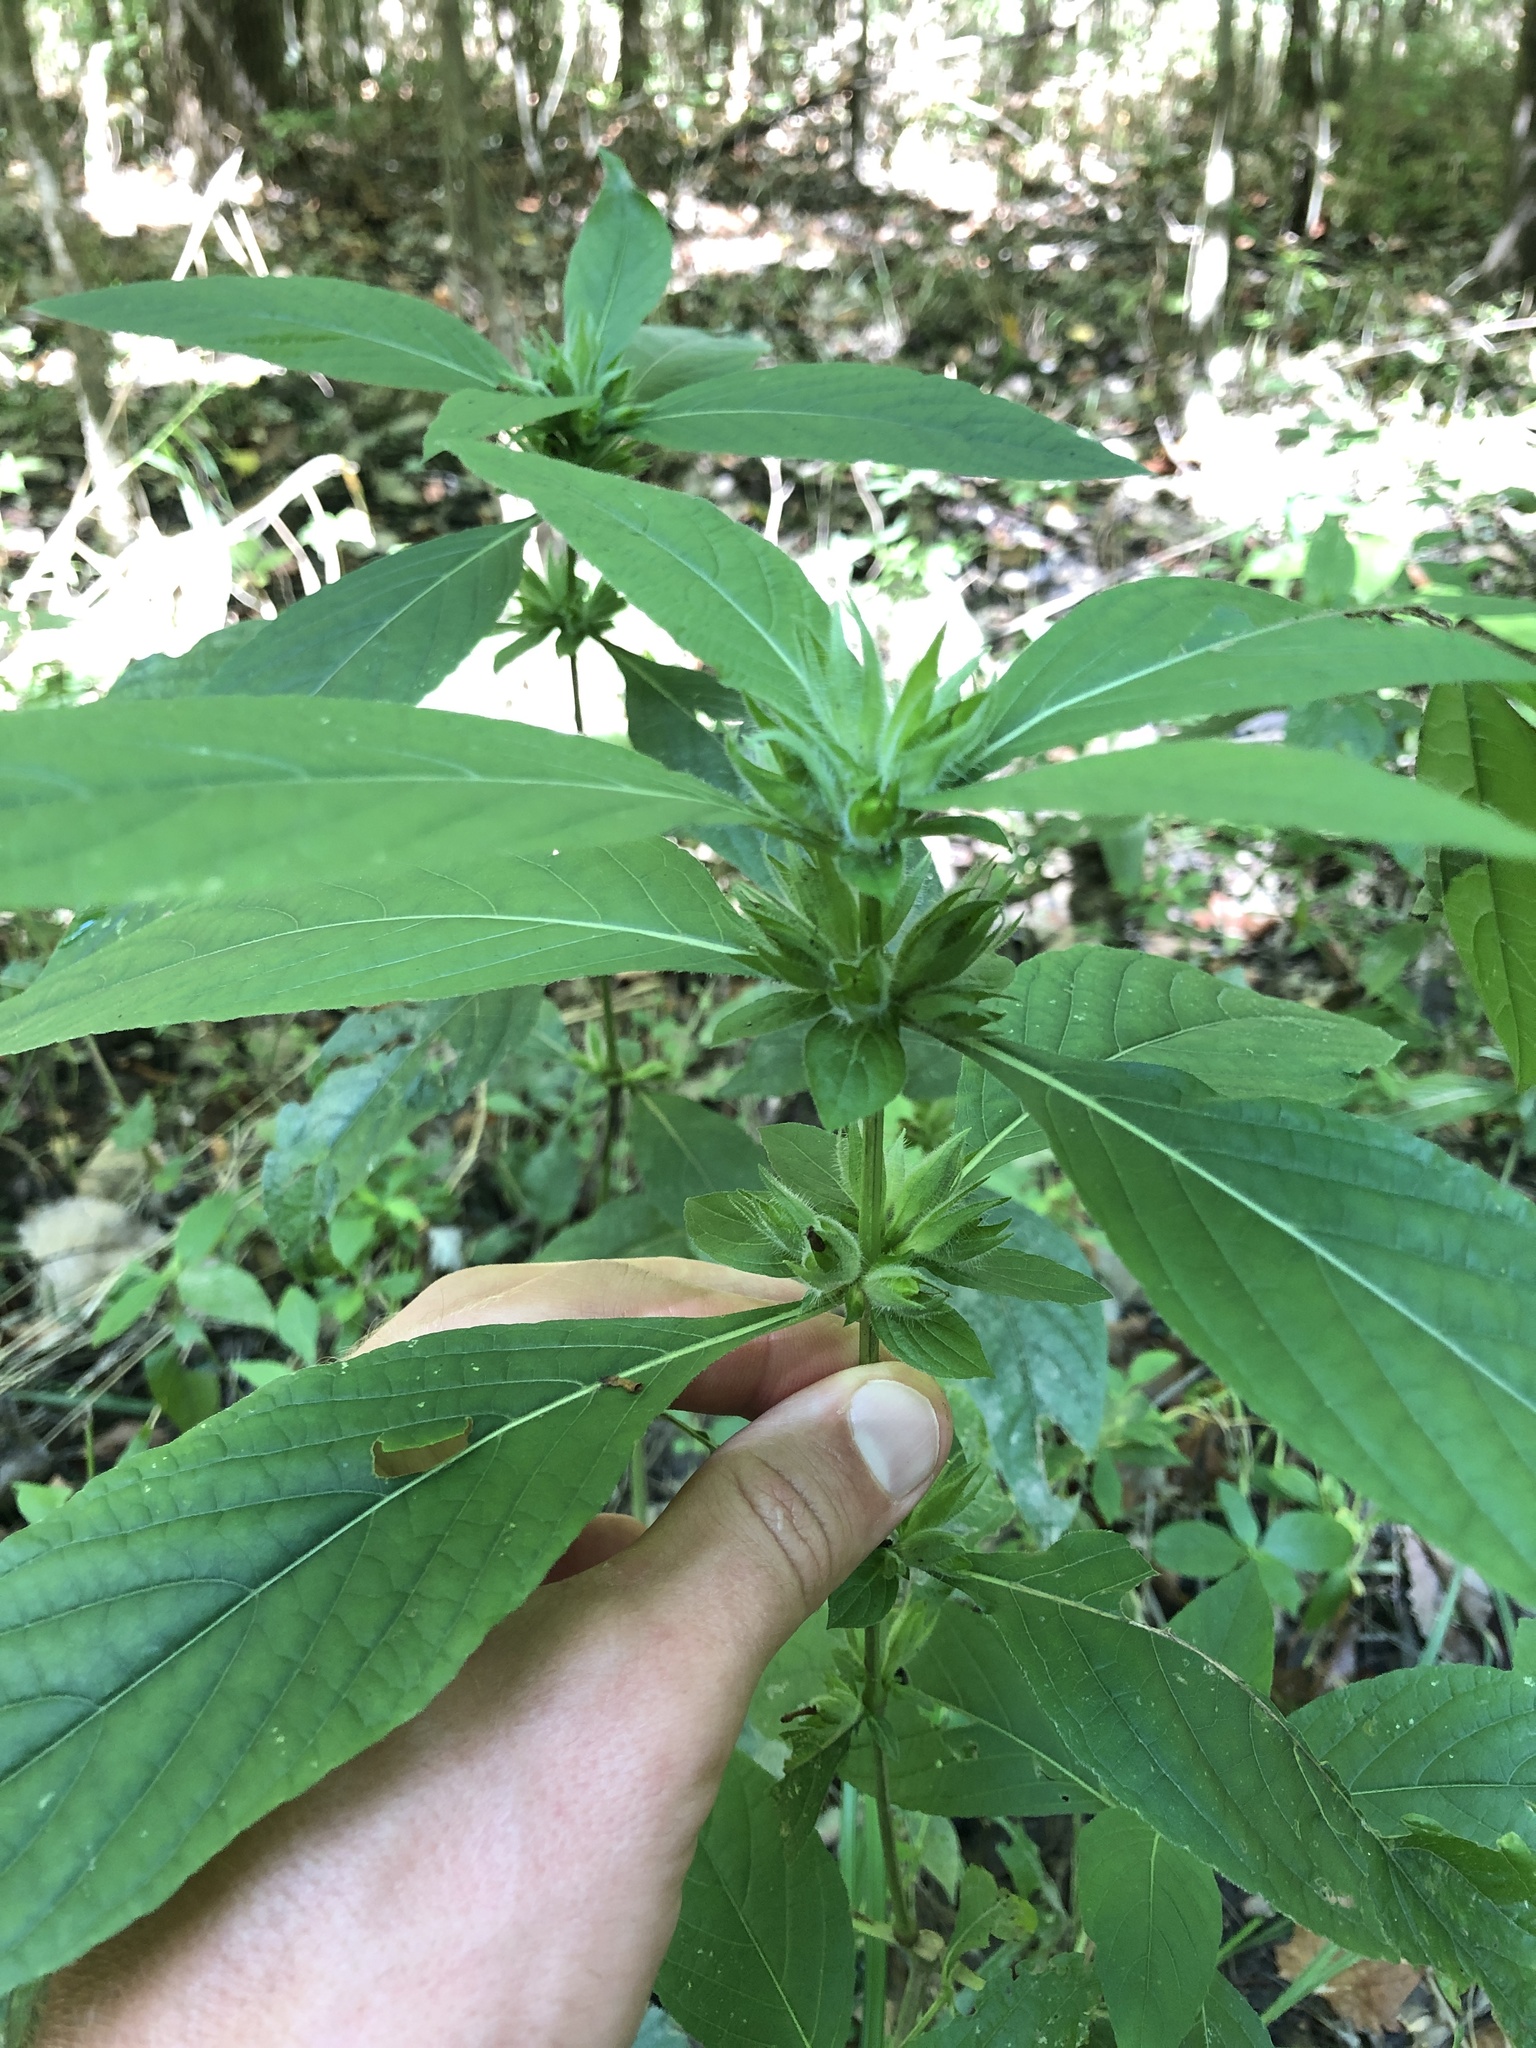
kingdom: Plantae
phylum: Tracheophyta
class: Magnoliopsida
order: Lamiales
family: Acanthaceae
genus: Ruellia
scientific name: Ruellia strepens
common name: Limestone wild petunia
